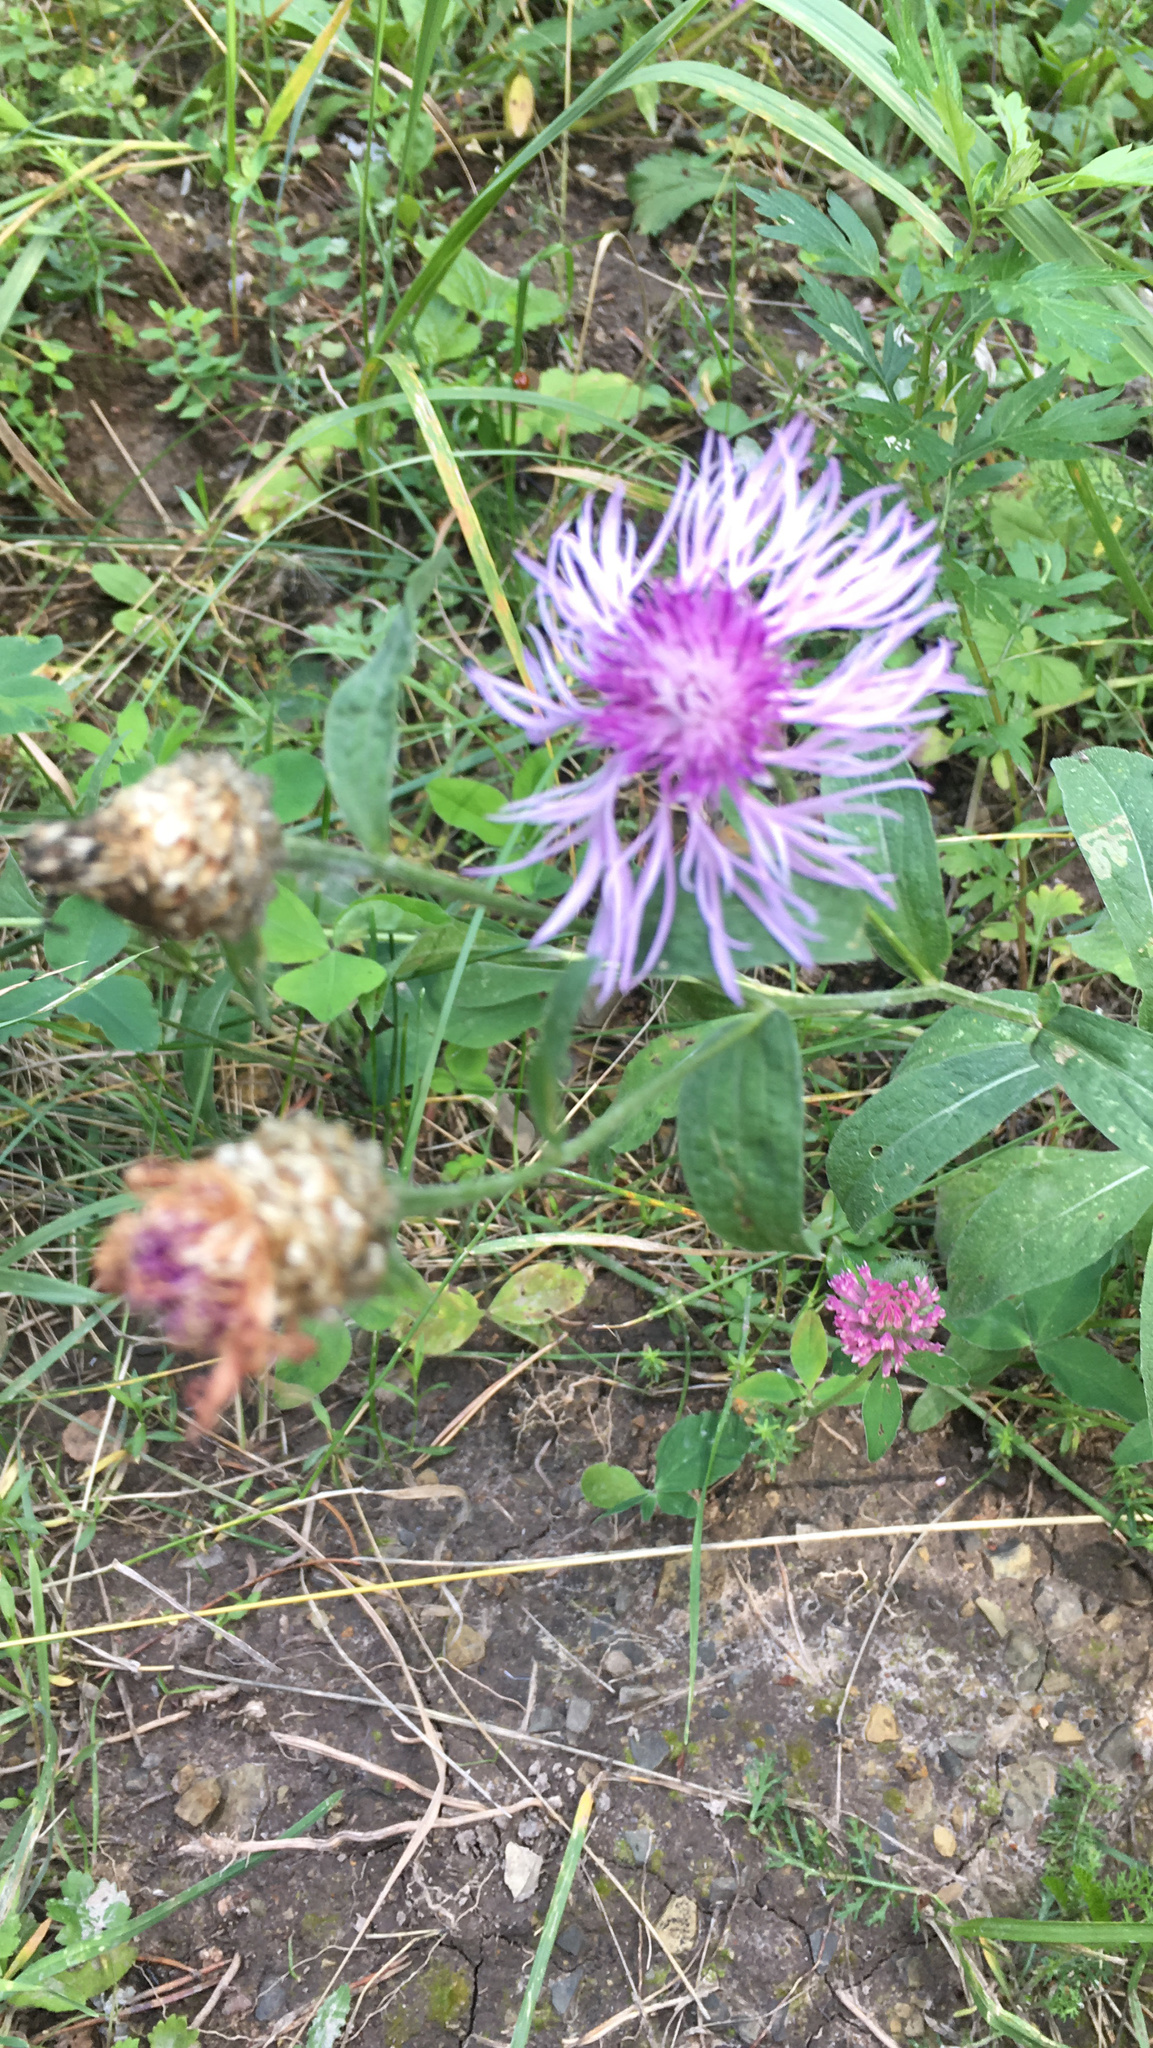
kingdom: Plantae
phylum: Tracheophyta
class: Magnoliopsida
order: Asterales
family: Asteraceae
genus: Centaurea
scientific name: Centaurea jacea
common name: Brown knapweed
